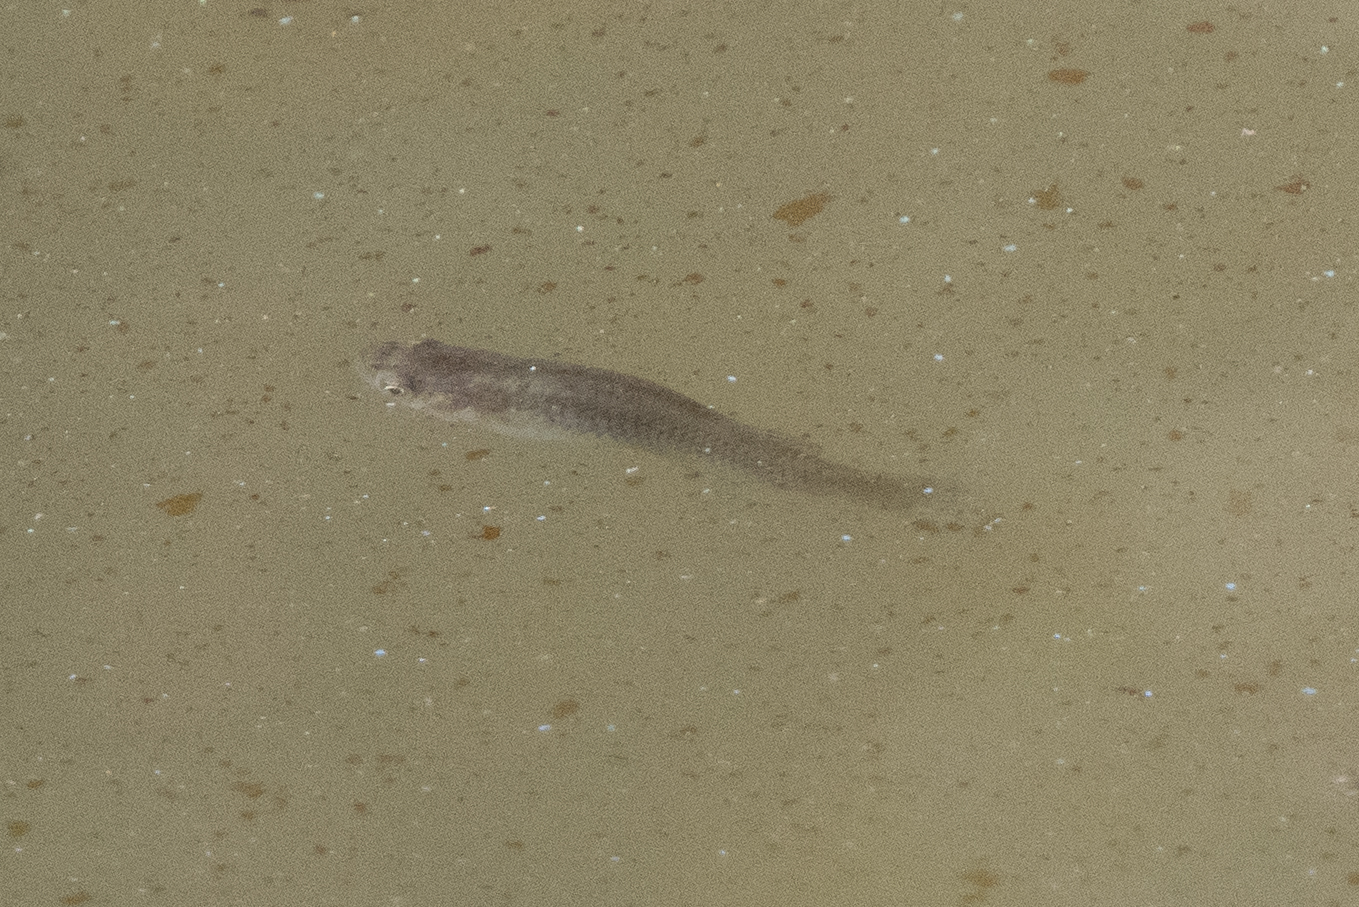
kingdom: Animalia
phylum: Chordata
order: Cyprinodontiformes
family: Poeciliidae
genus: Gambusia
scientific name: Gambusia affinis
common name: Mosquitofish
